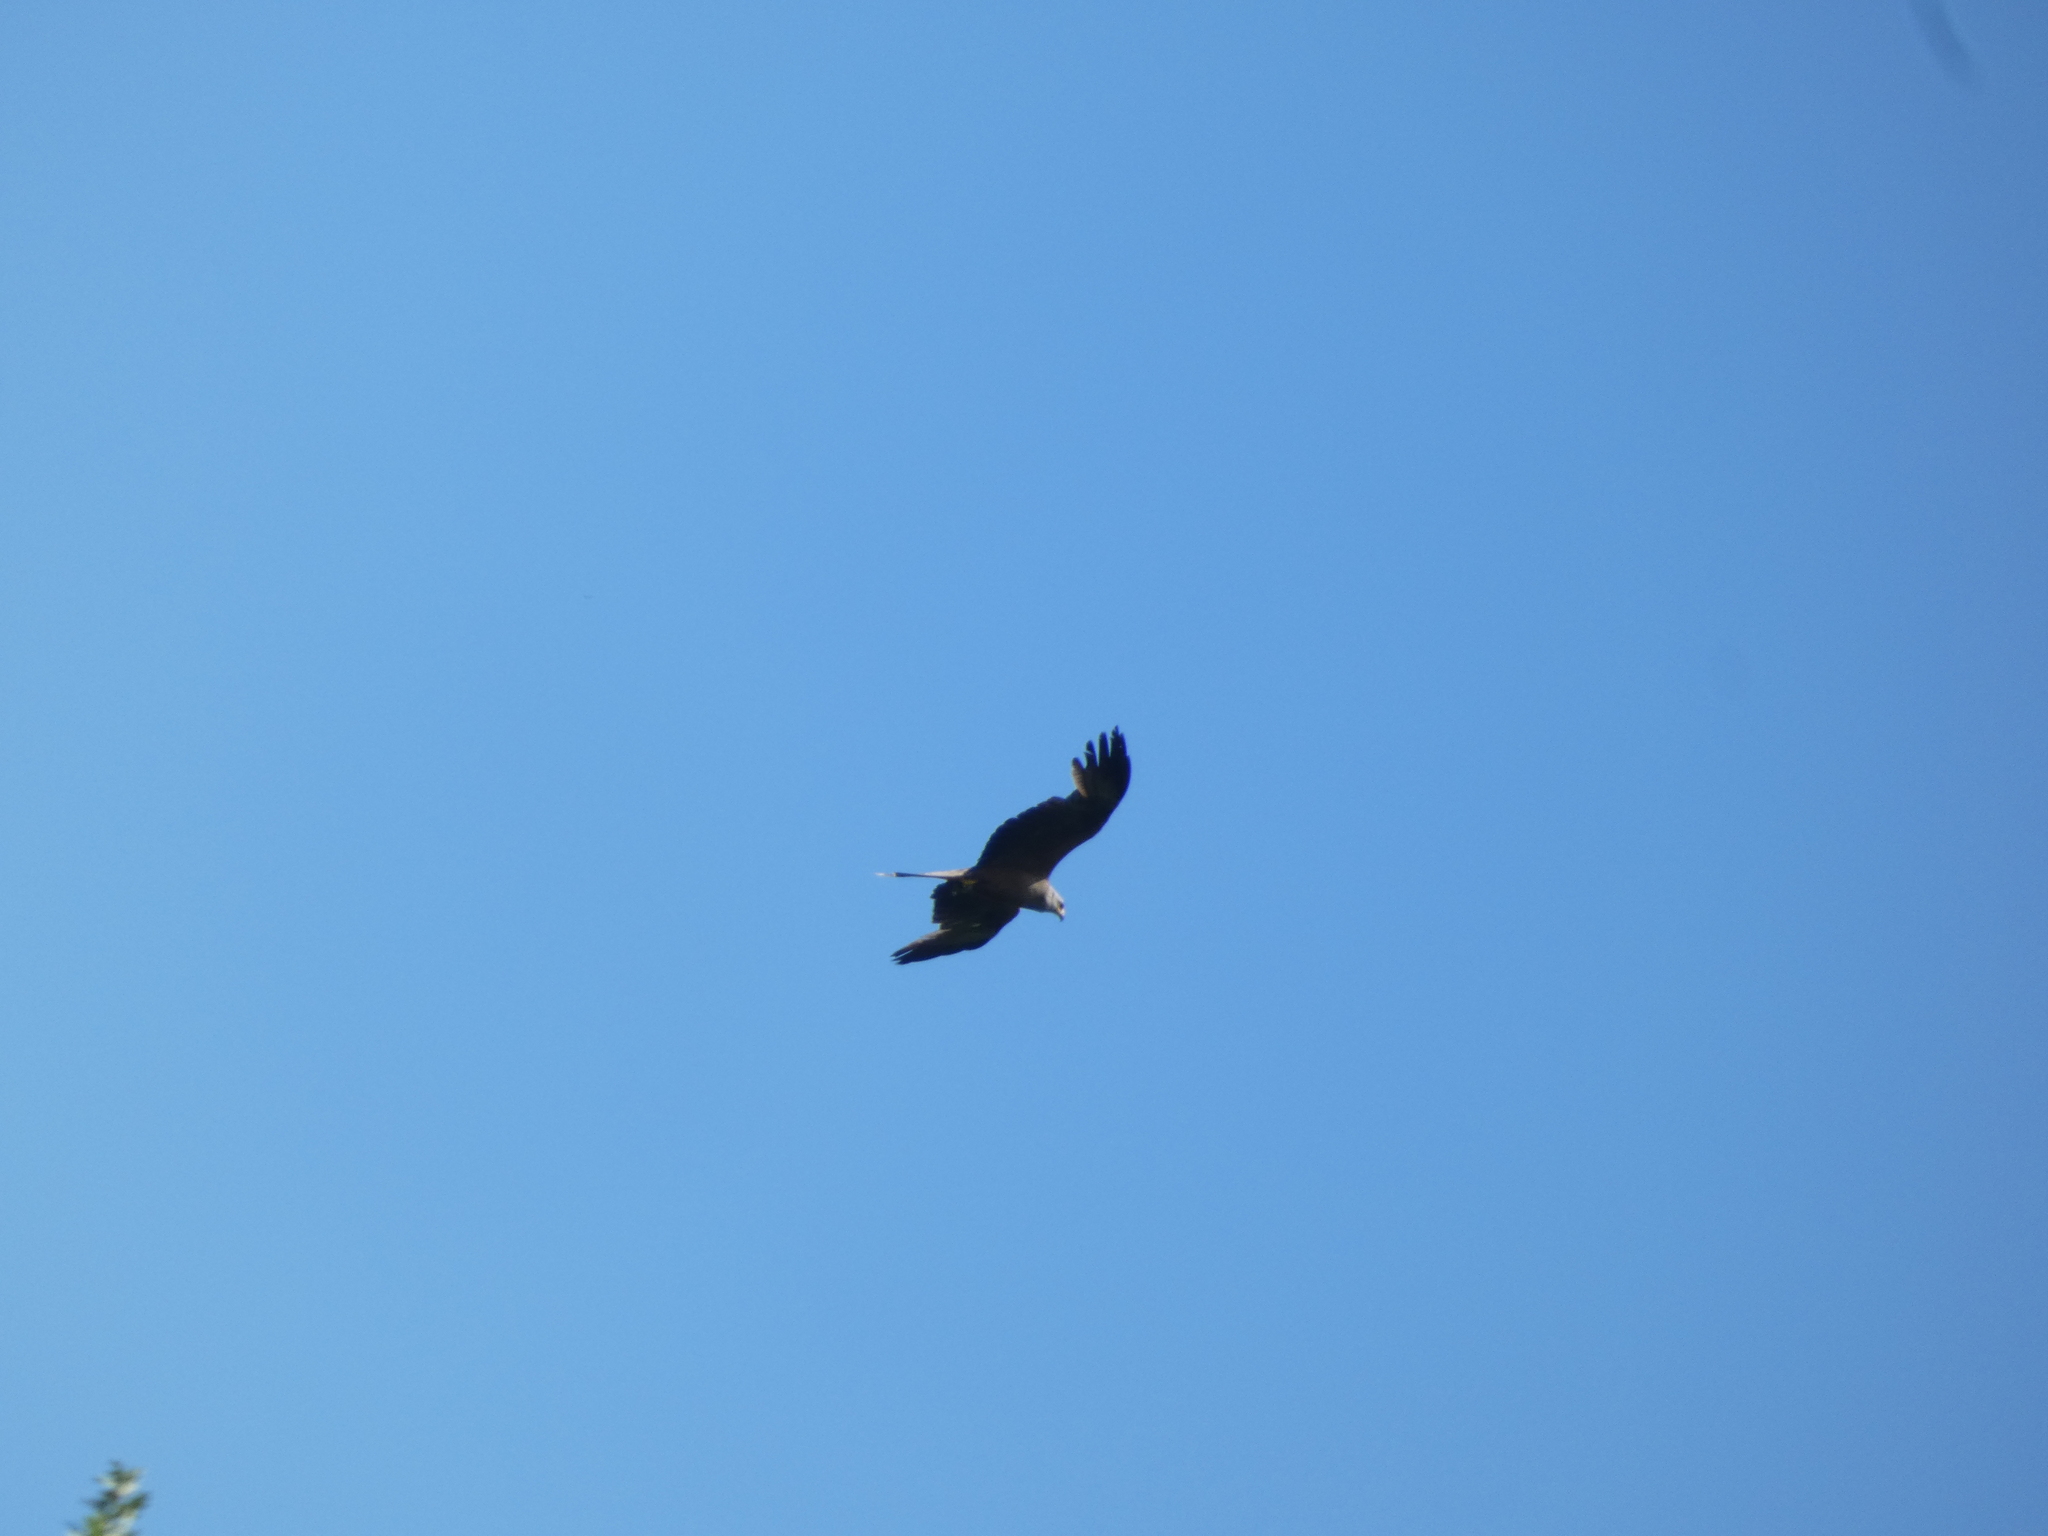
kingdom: Animalia
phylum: Chordata
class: Aves
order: Accipitriformes
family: Accipitridae
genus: Milvus
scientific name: Milvus migrans
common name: Black kite
